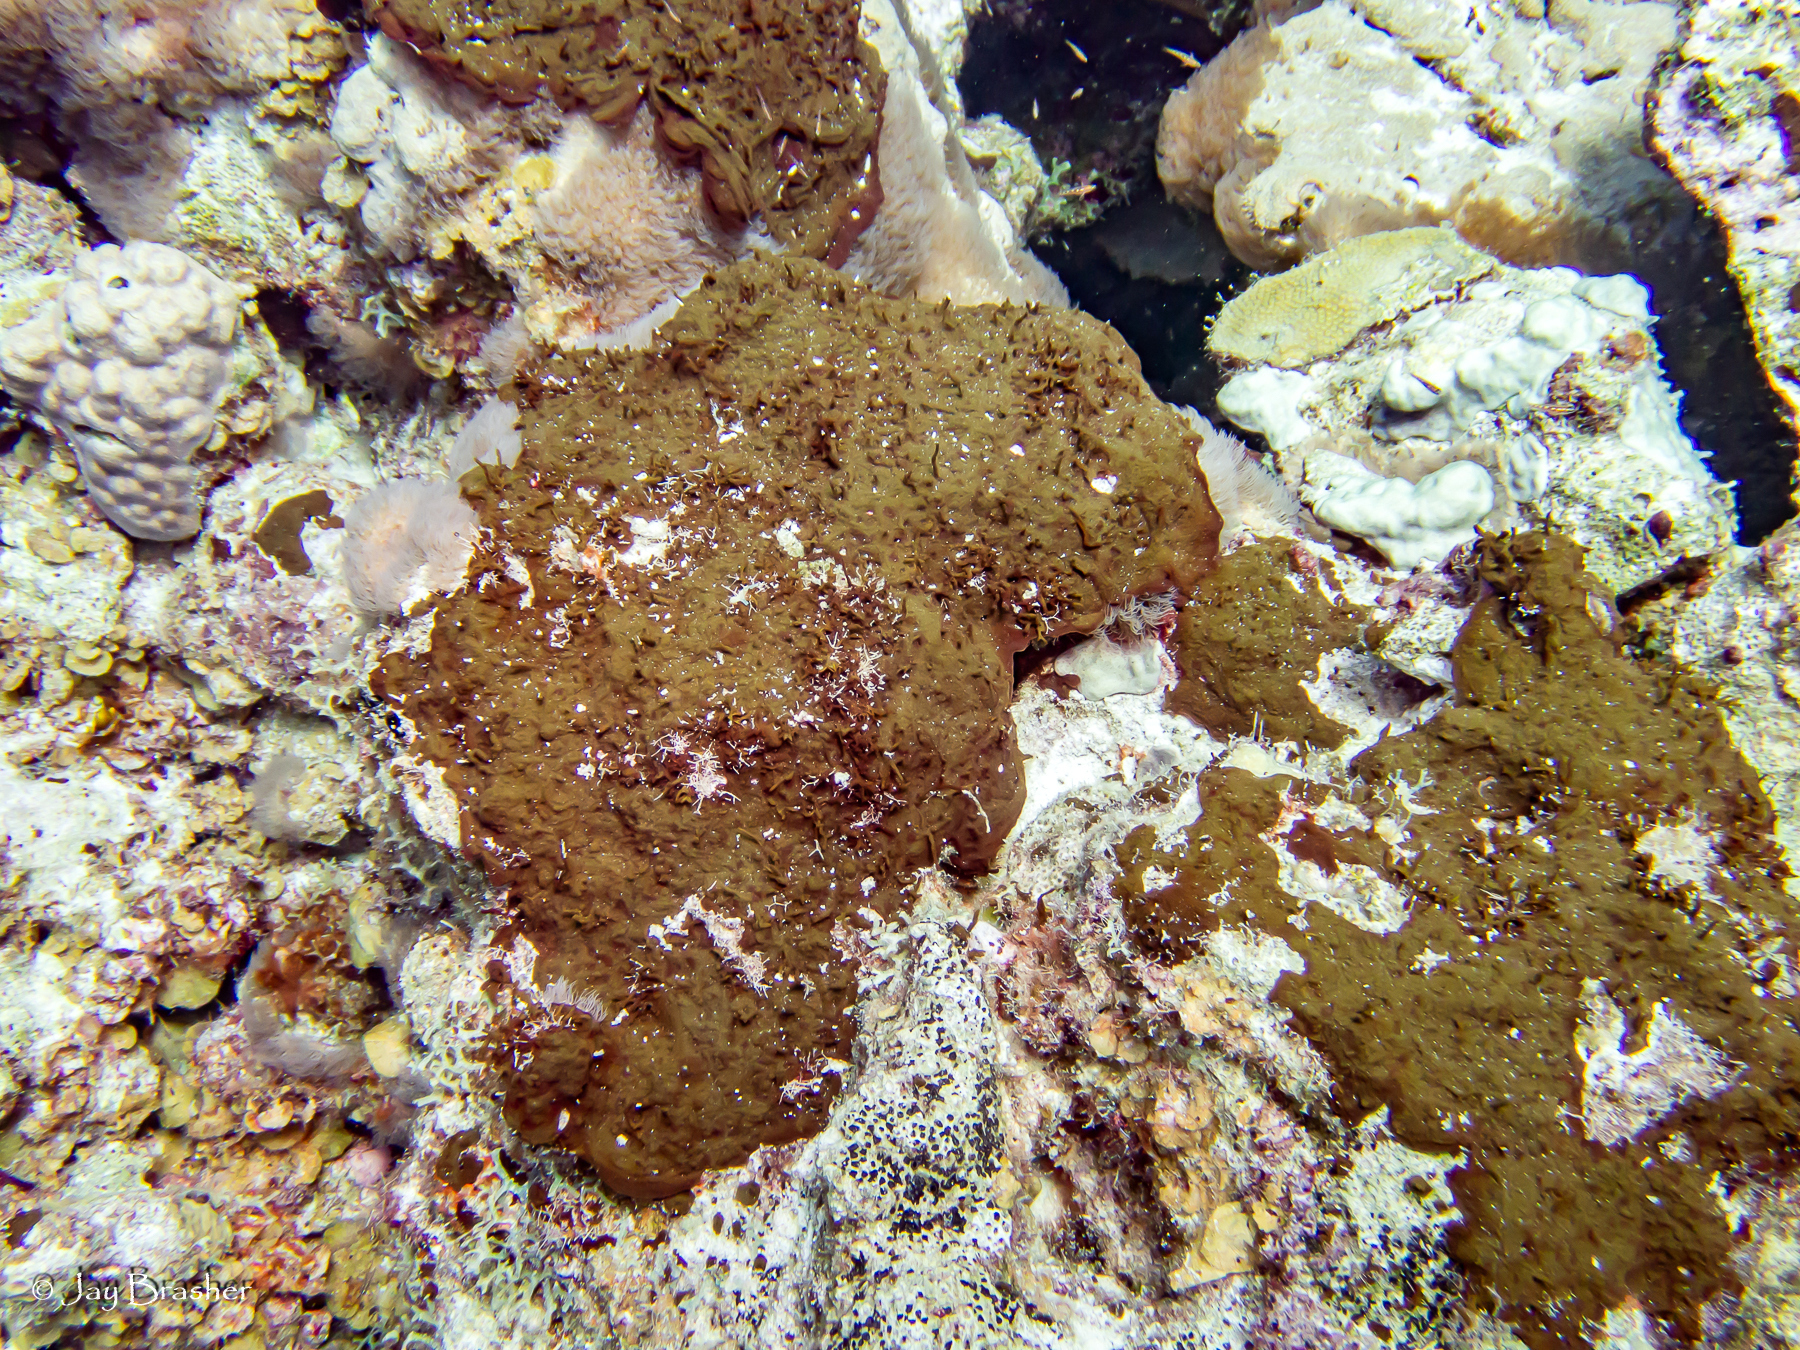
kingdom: Animalia
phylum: Porifera
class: Demospongiae
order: Bubarida
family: Dictyonellidae
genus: Dictyonella
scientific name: Dictyonella funicularis
